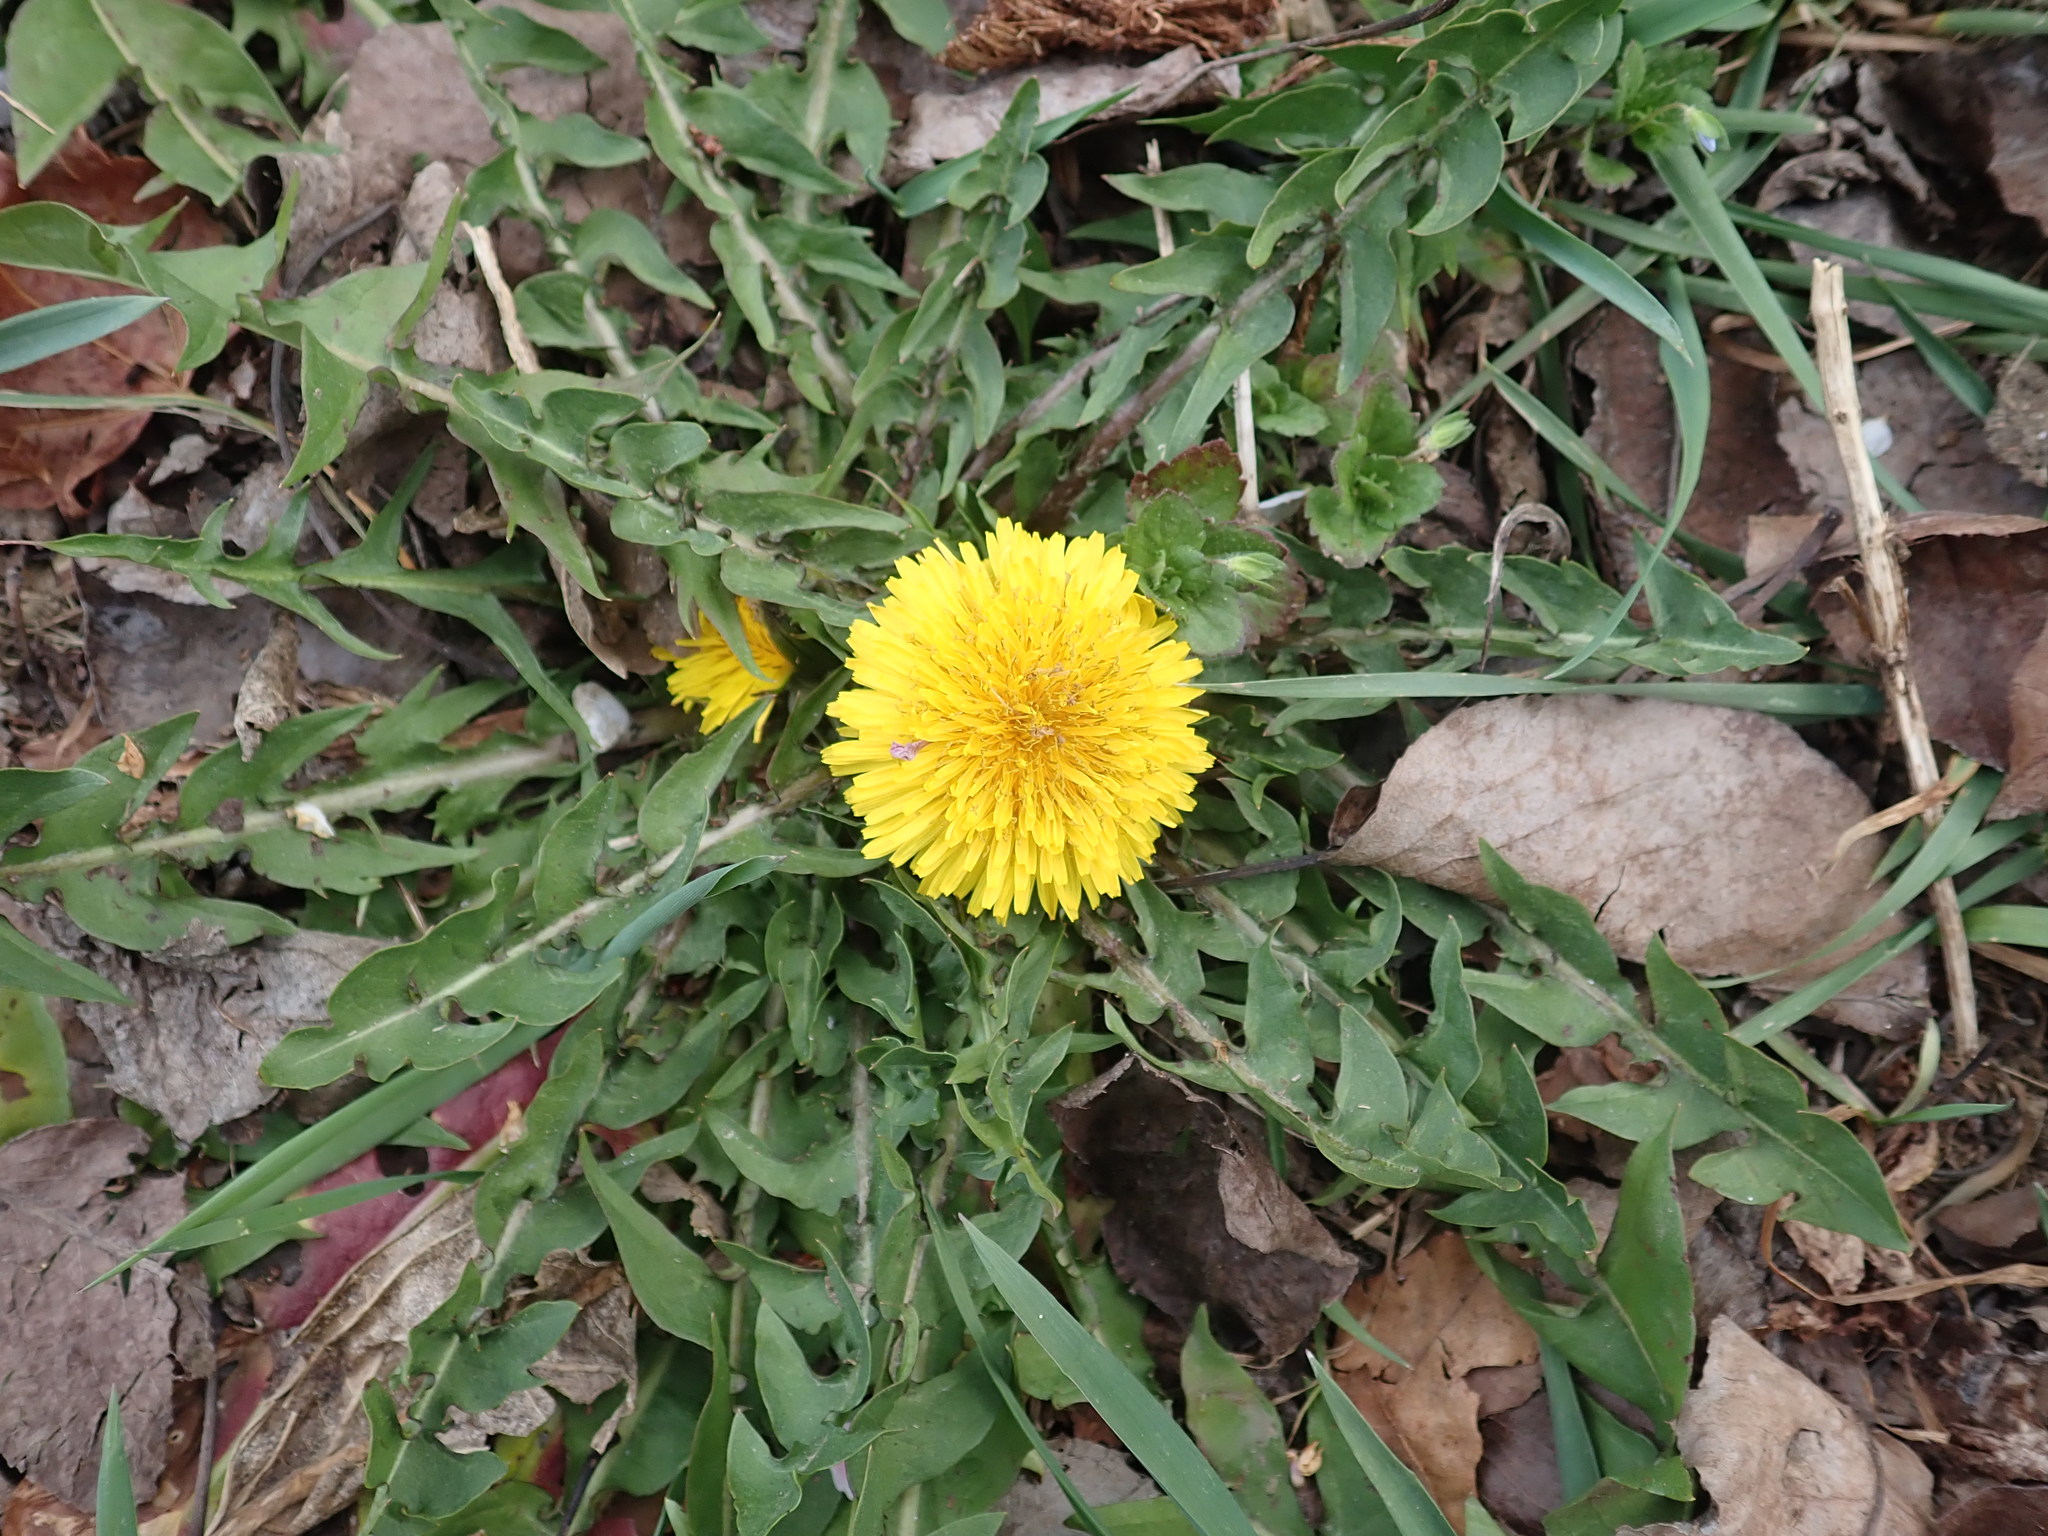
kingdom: Plantae
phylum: Tracheophyta
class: Magnoliopsida
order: Asterales
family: Asteraceae
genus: Taraxacum
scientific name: Taraxacum officinale
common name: Common dandelion
